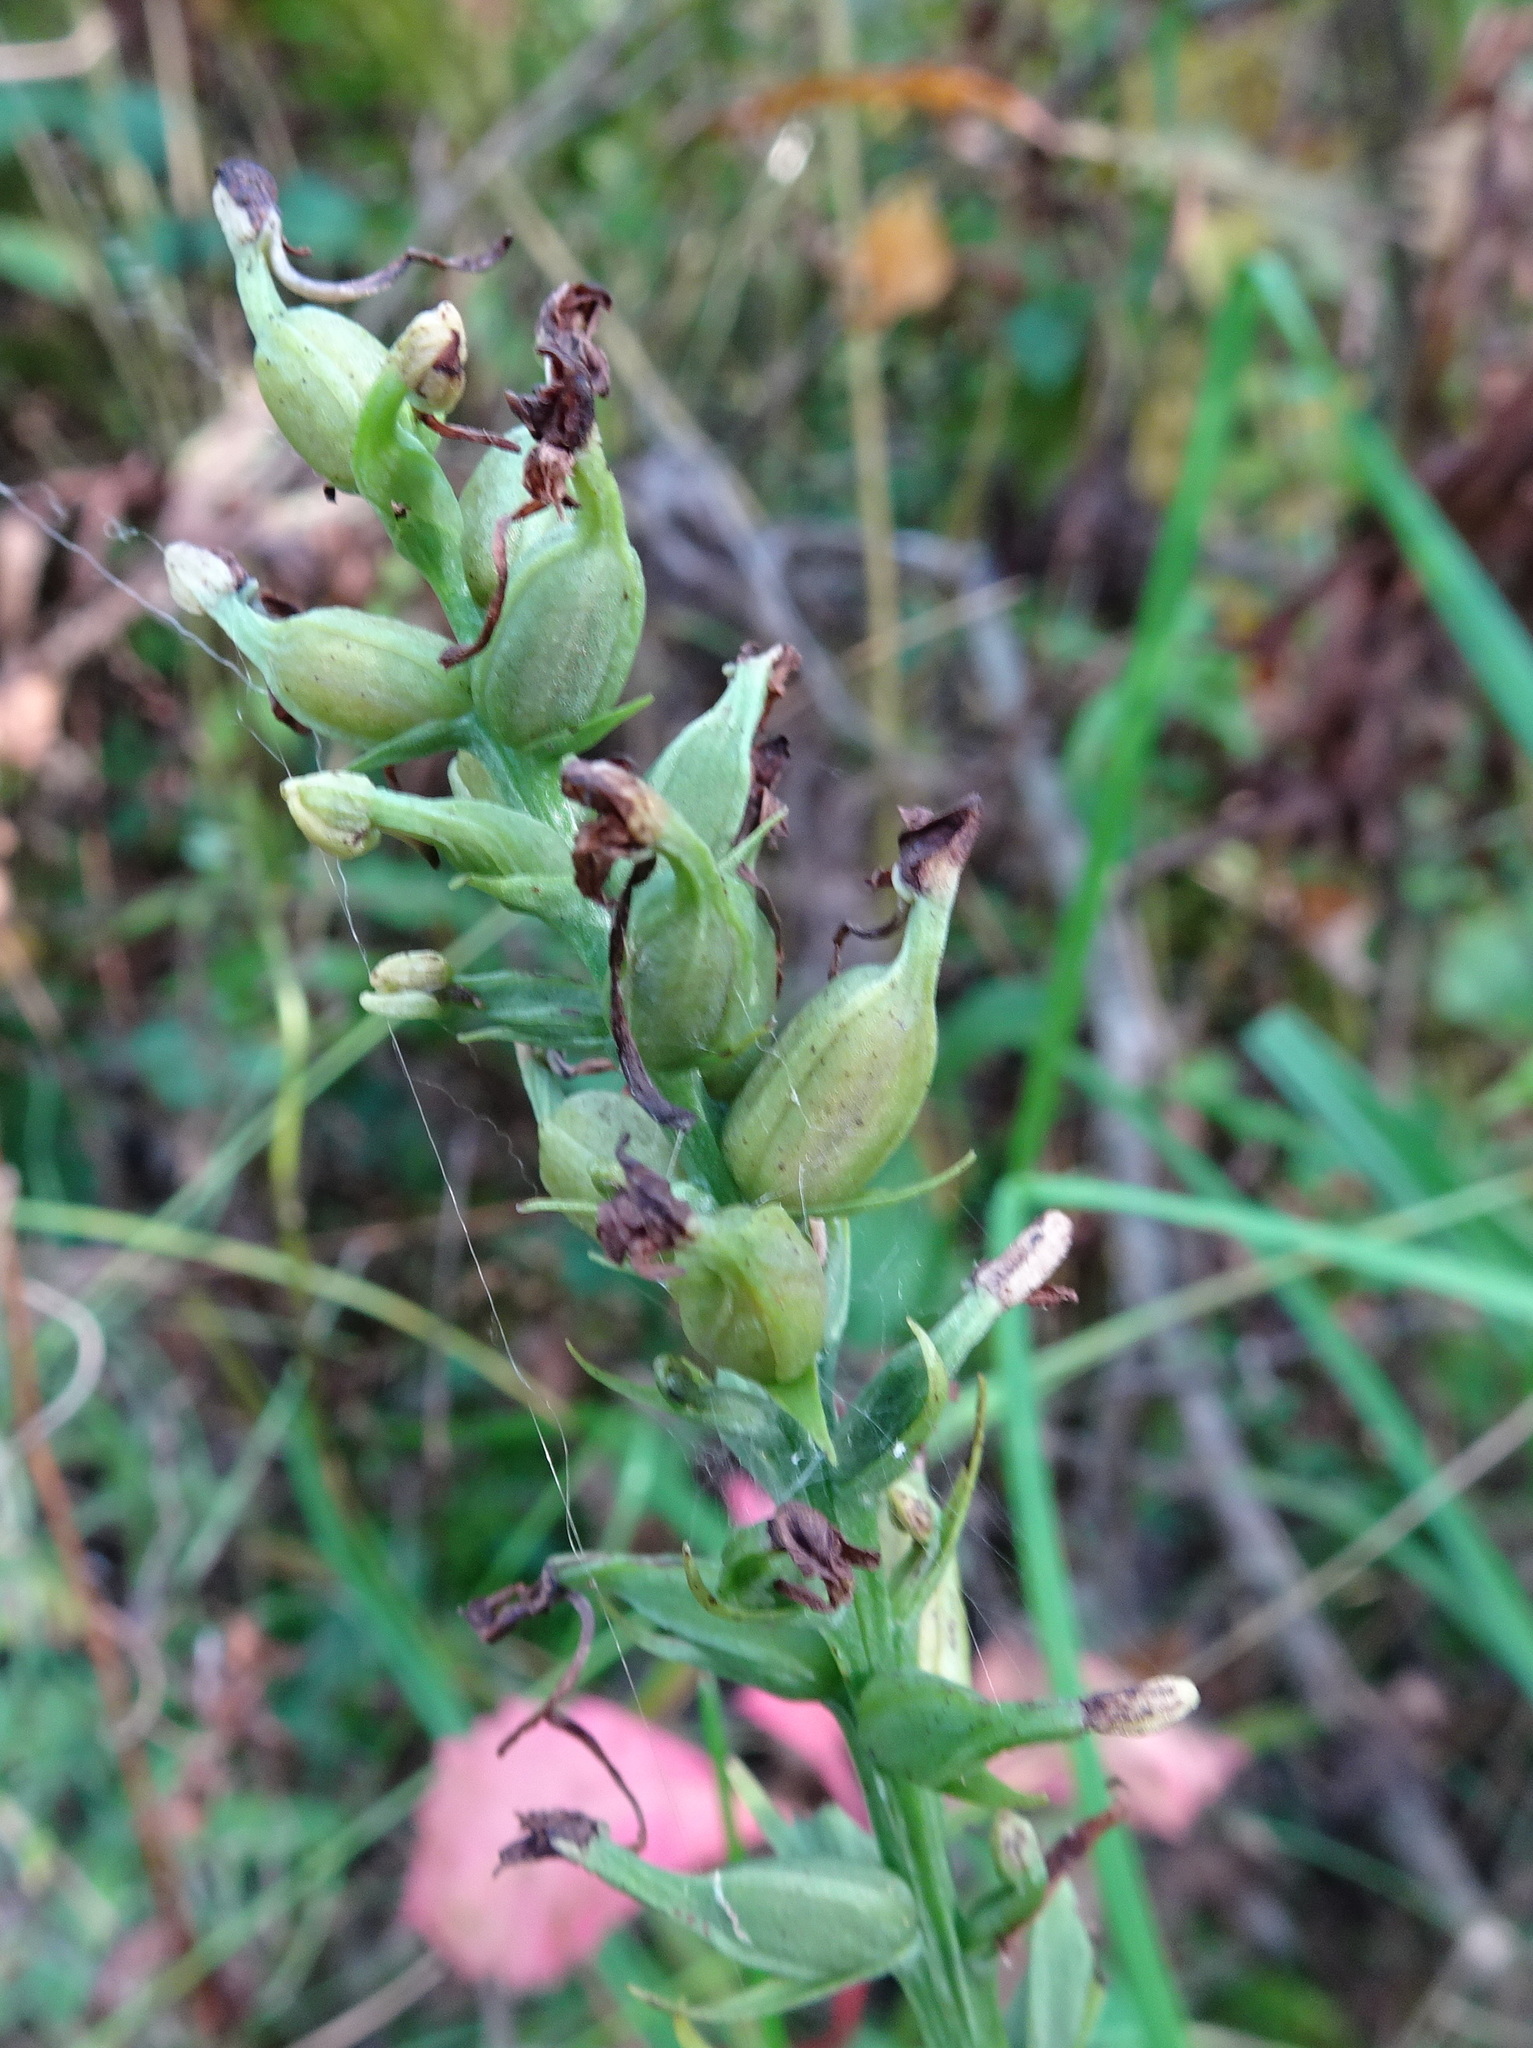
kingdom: Plantae
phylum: Tracheophyta
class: Liliopsida
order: Asparagales
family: Orchidaceae
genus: Platanthera
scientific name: Platanthera clavellata
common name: Club-spur orchid
